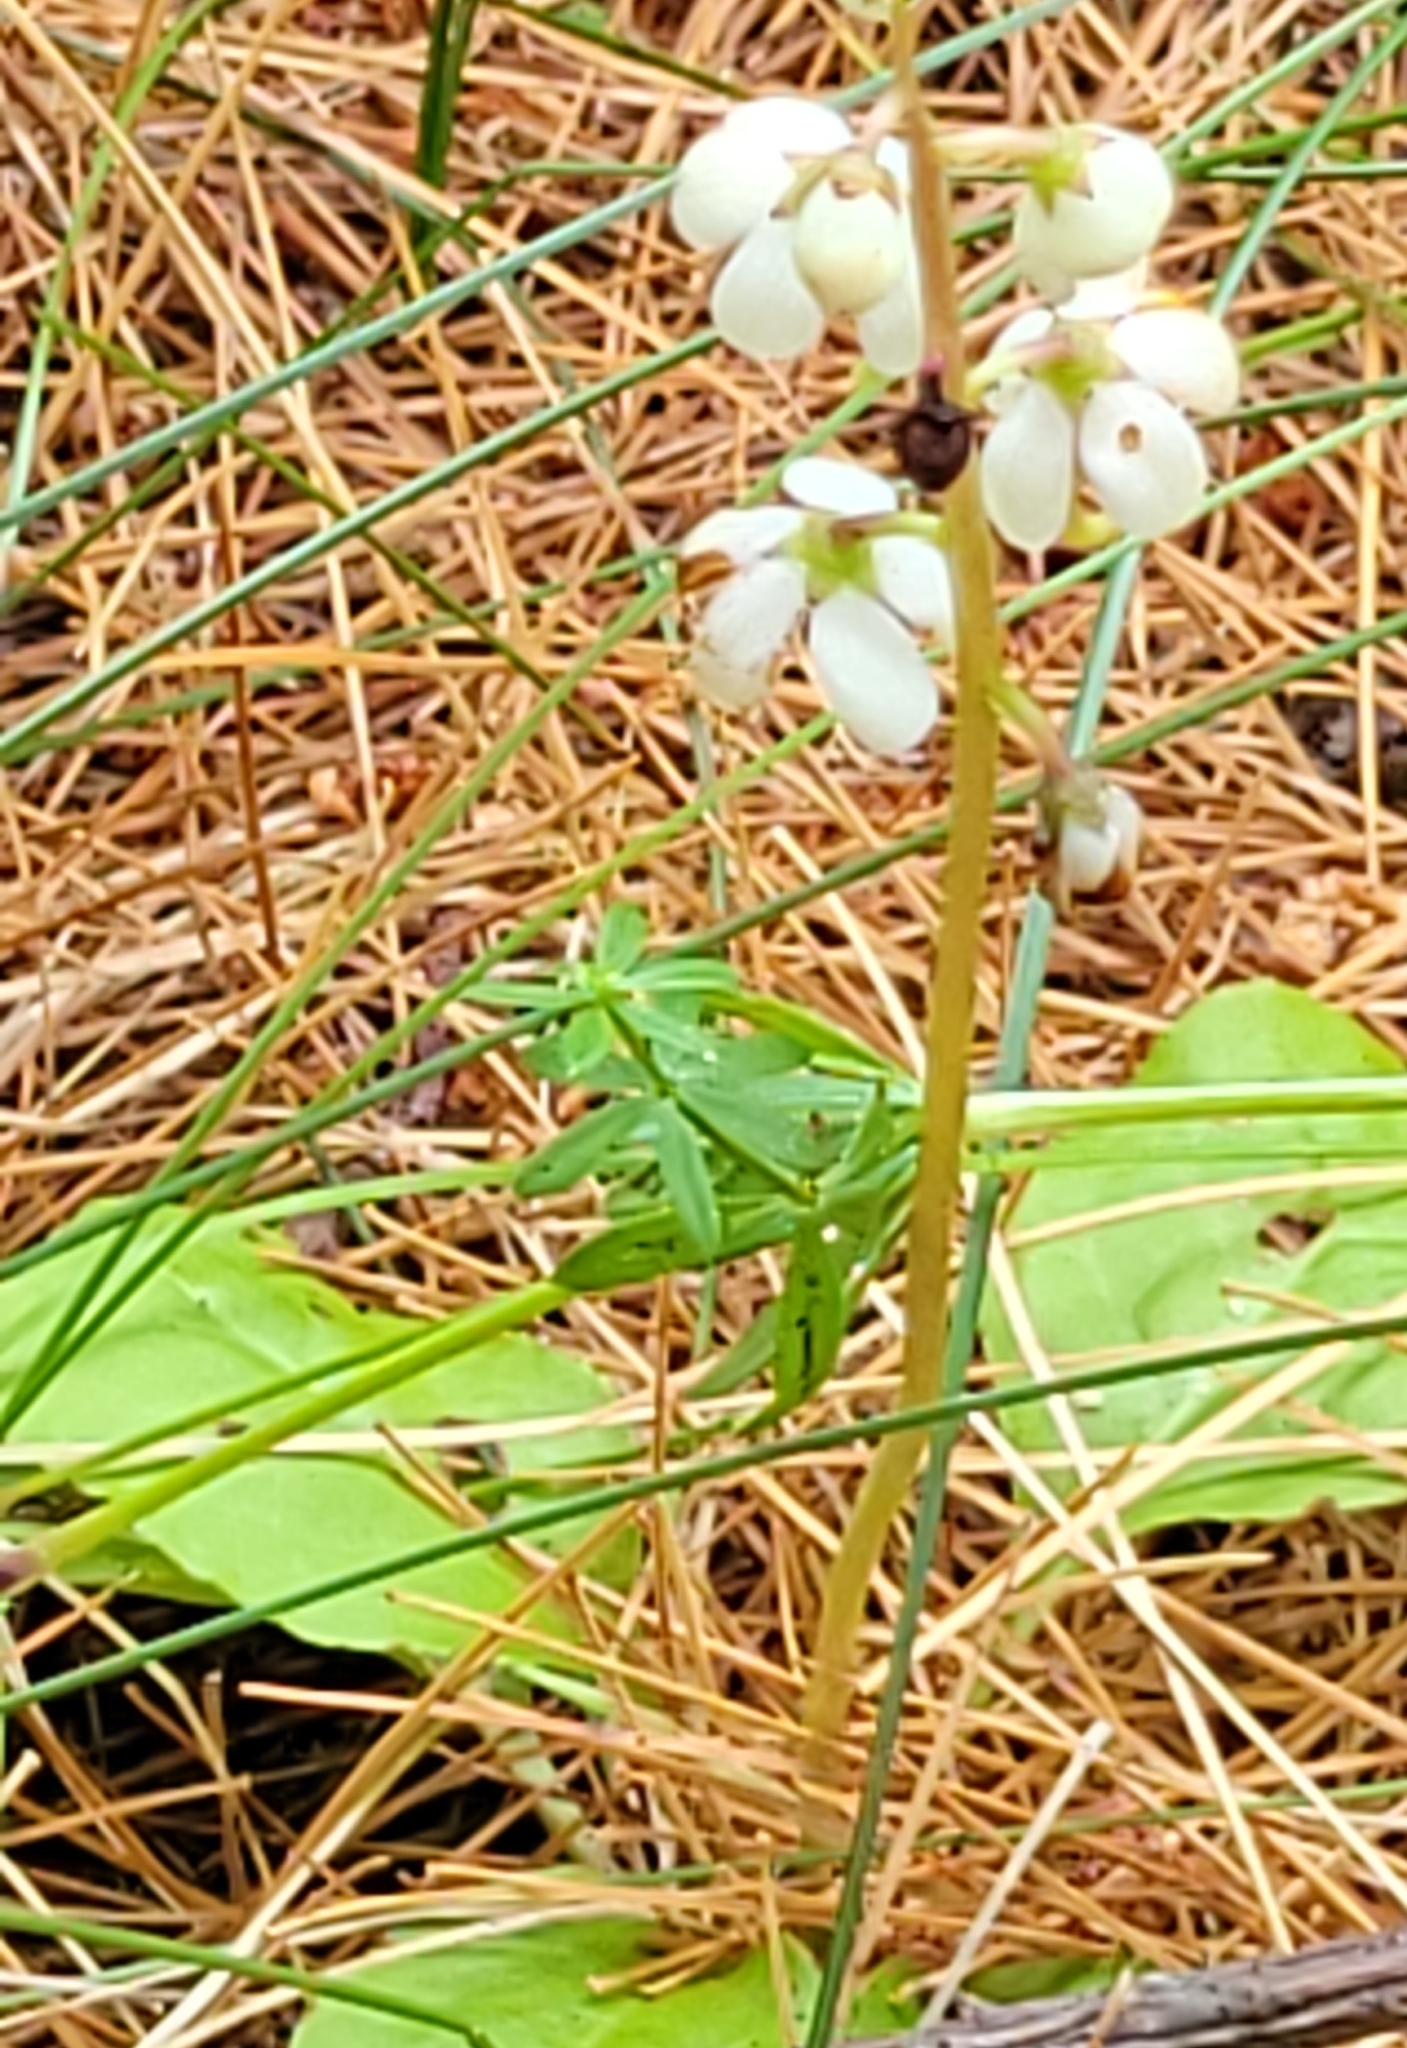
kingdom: Plantae
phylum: Tracheophyta
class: Magnoliopsida
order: Ericales
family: Ericaceae
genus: Pyrola
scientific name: Pyrola elliptica
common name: Shinleaf
